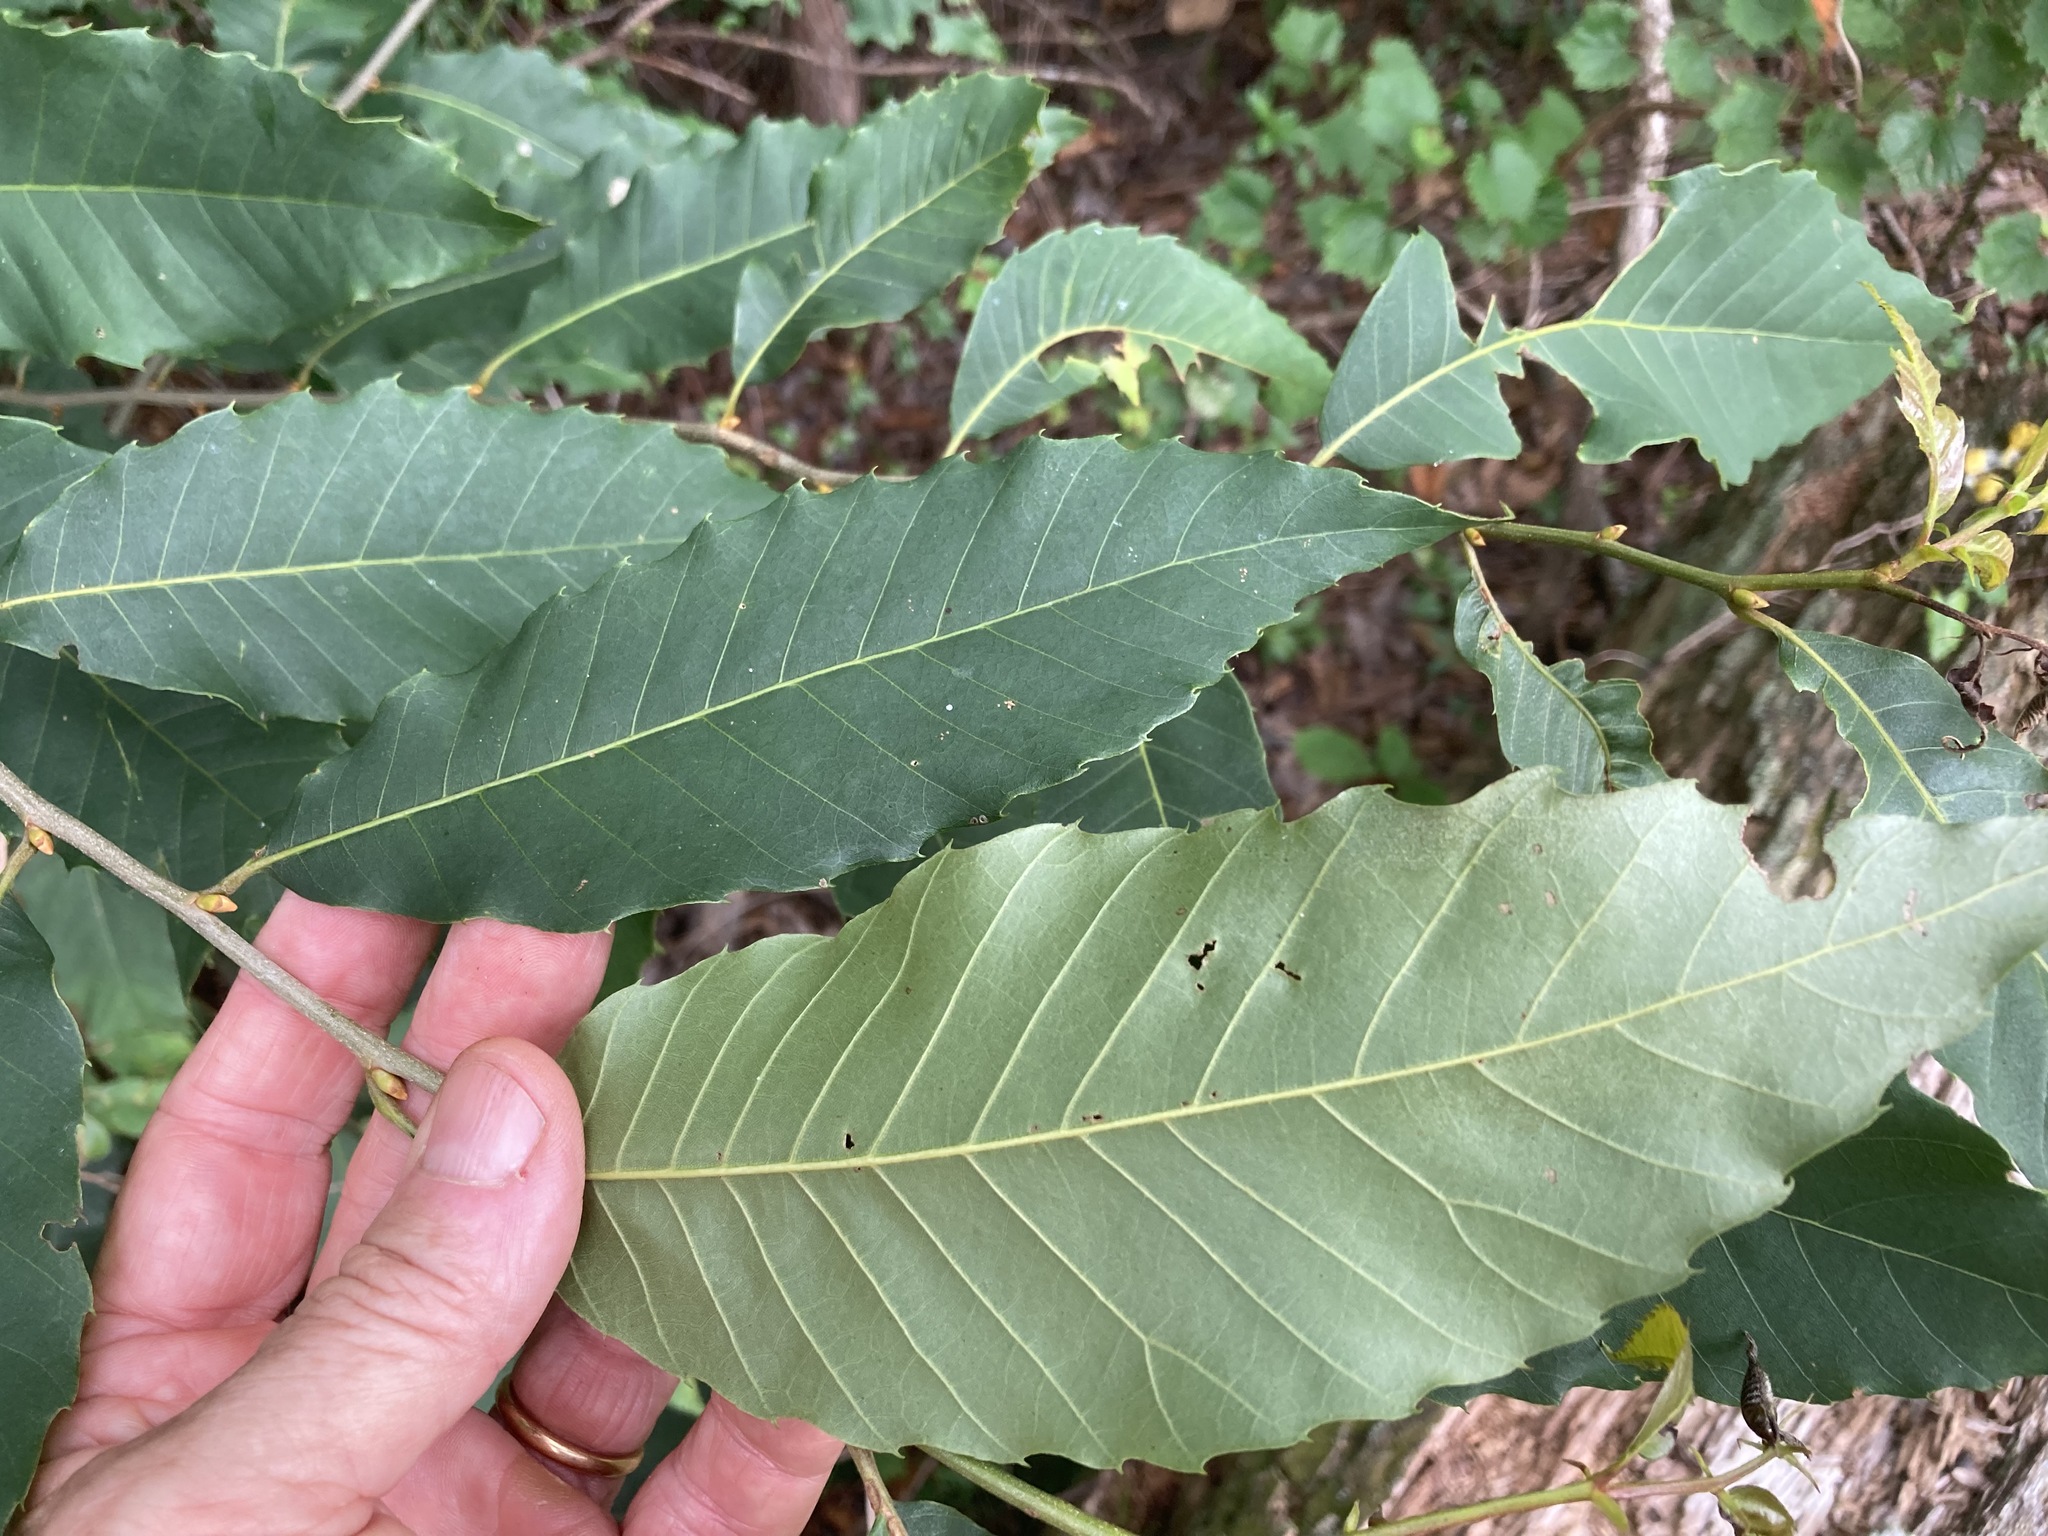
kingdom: Plantae
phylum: Tracheophyta
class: Magnoliopsida
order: Fagales
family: Fagaceae
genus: Castanea
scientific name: Castanea dentata
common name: American chestnut
